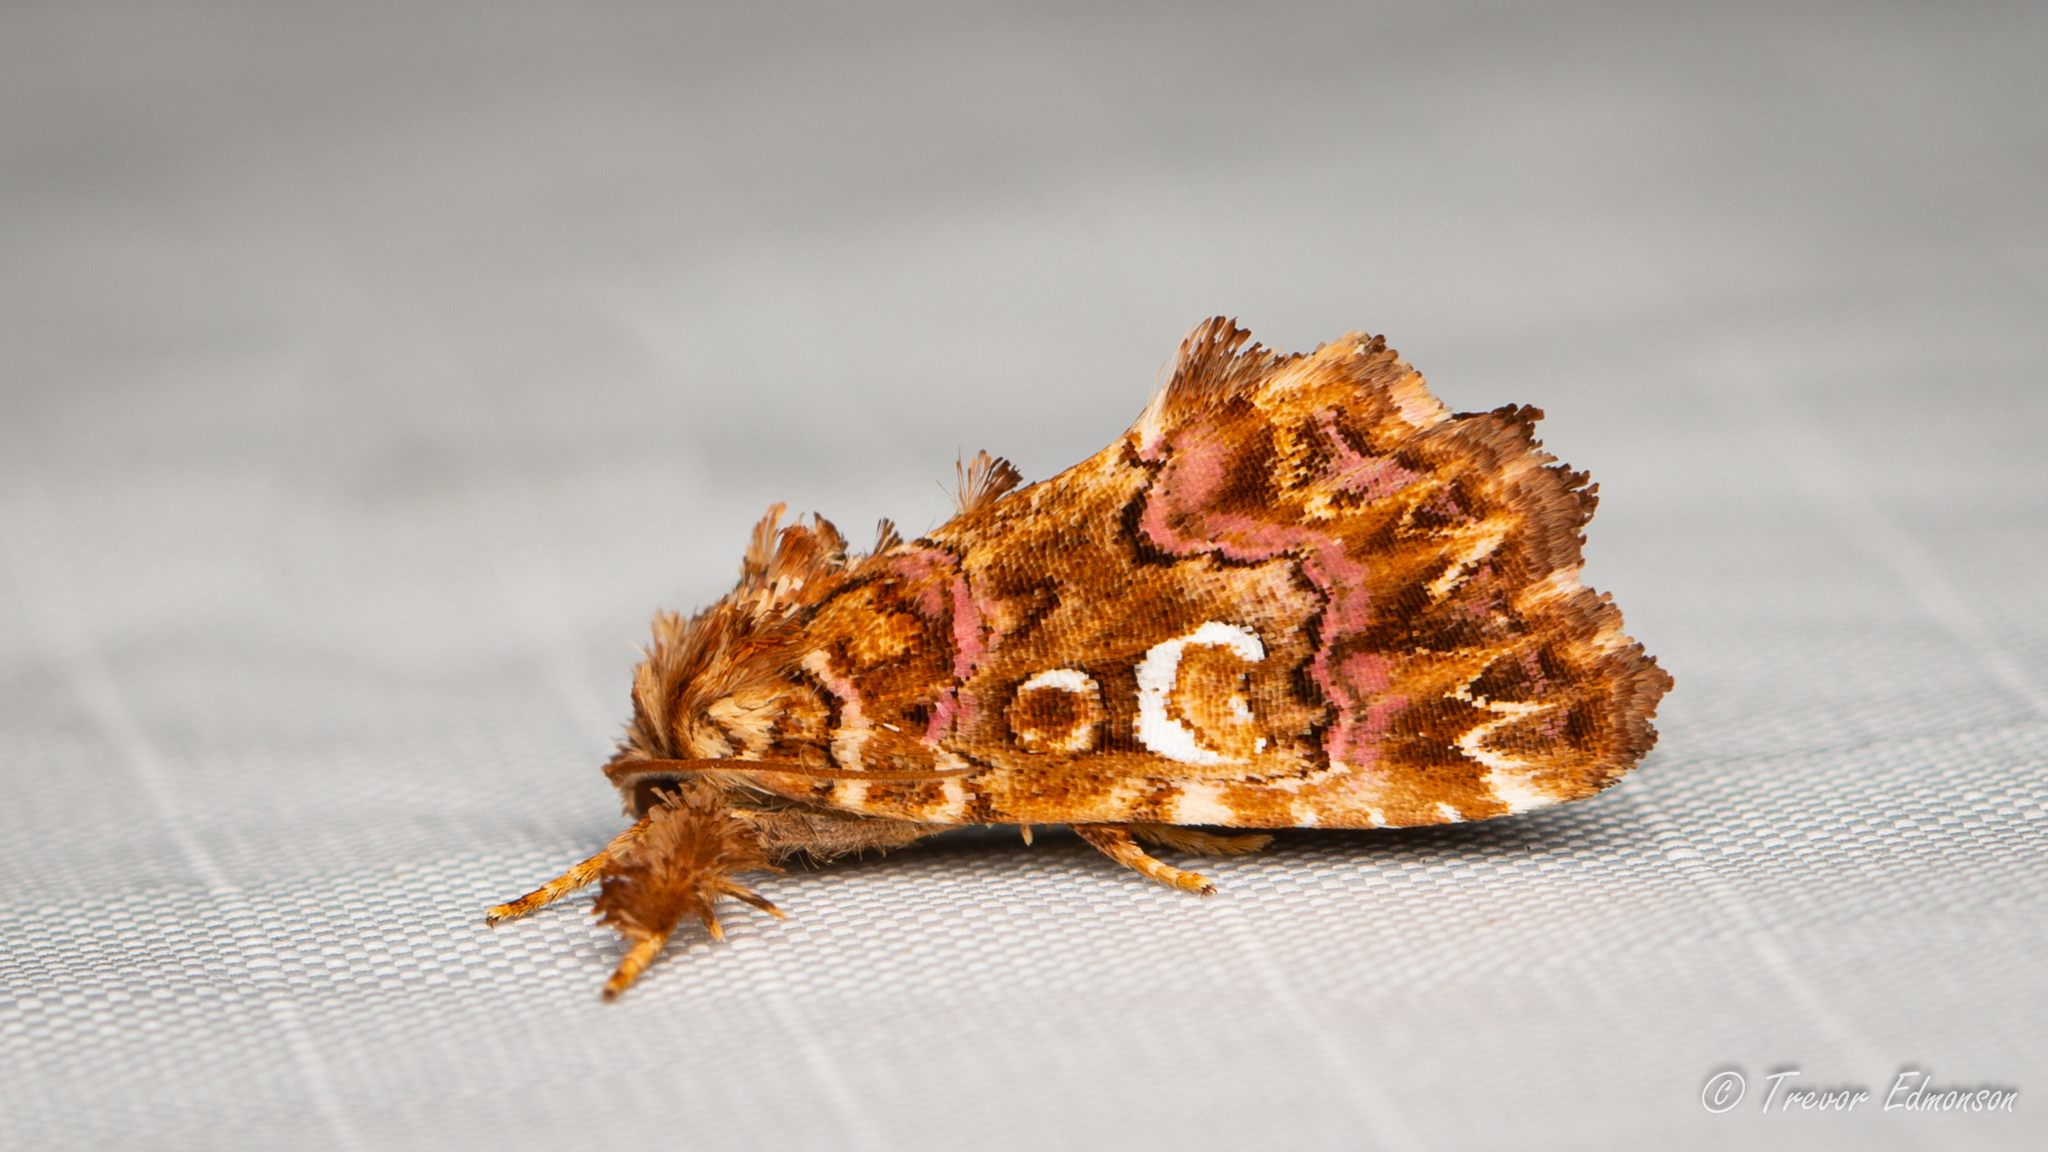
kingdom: Animalia
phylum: Arthropoda
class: Insecta
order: Lepidoptera
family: Noctuidae
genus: Callopistria
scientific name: Callopistria mollissima
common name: Pink-shaded fern moth
